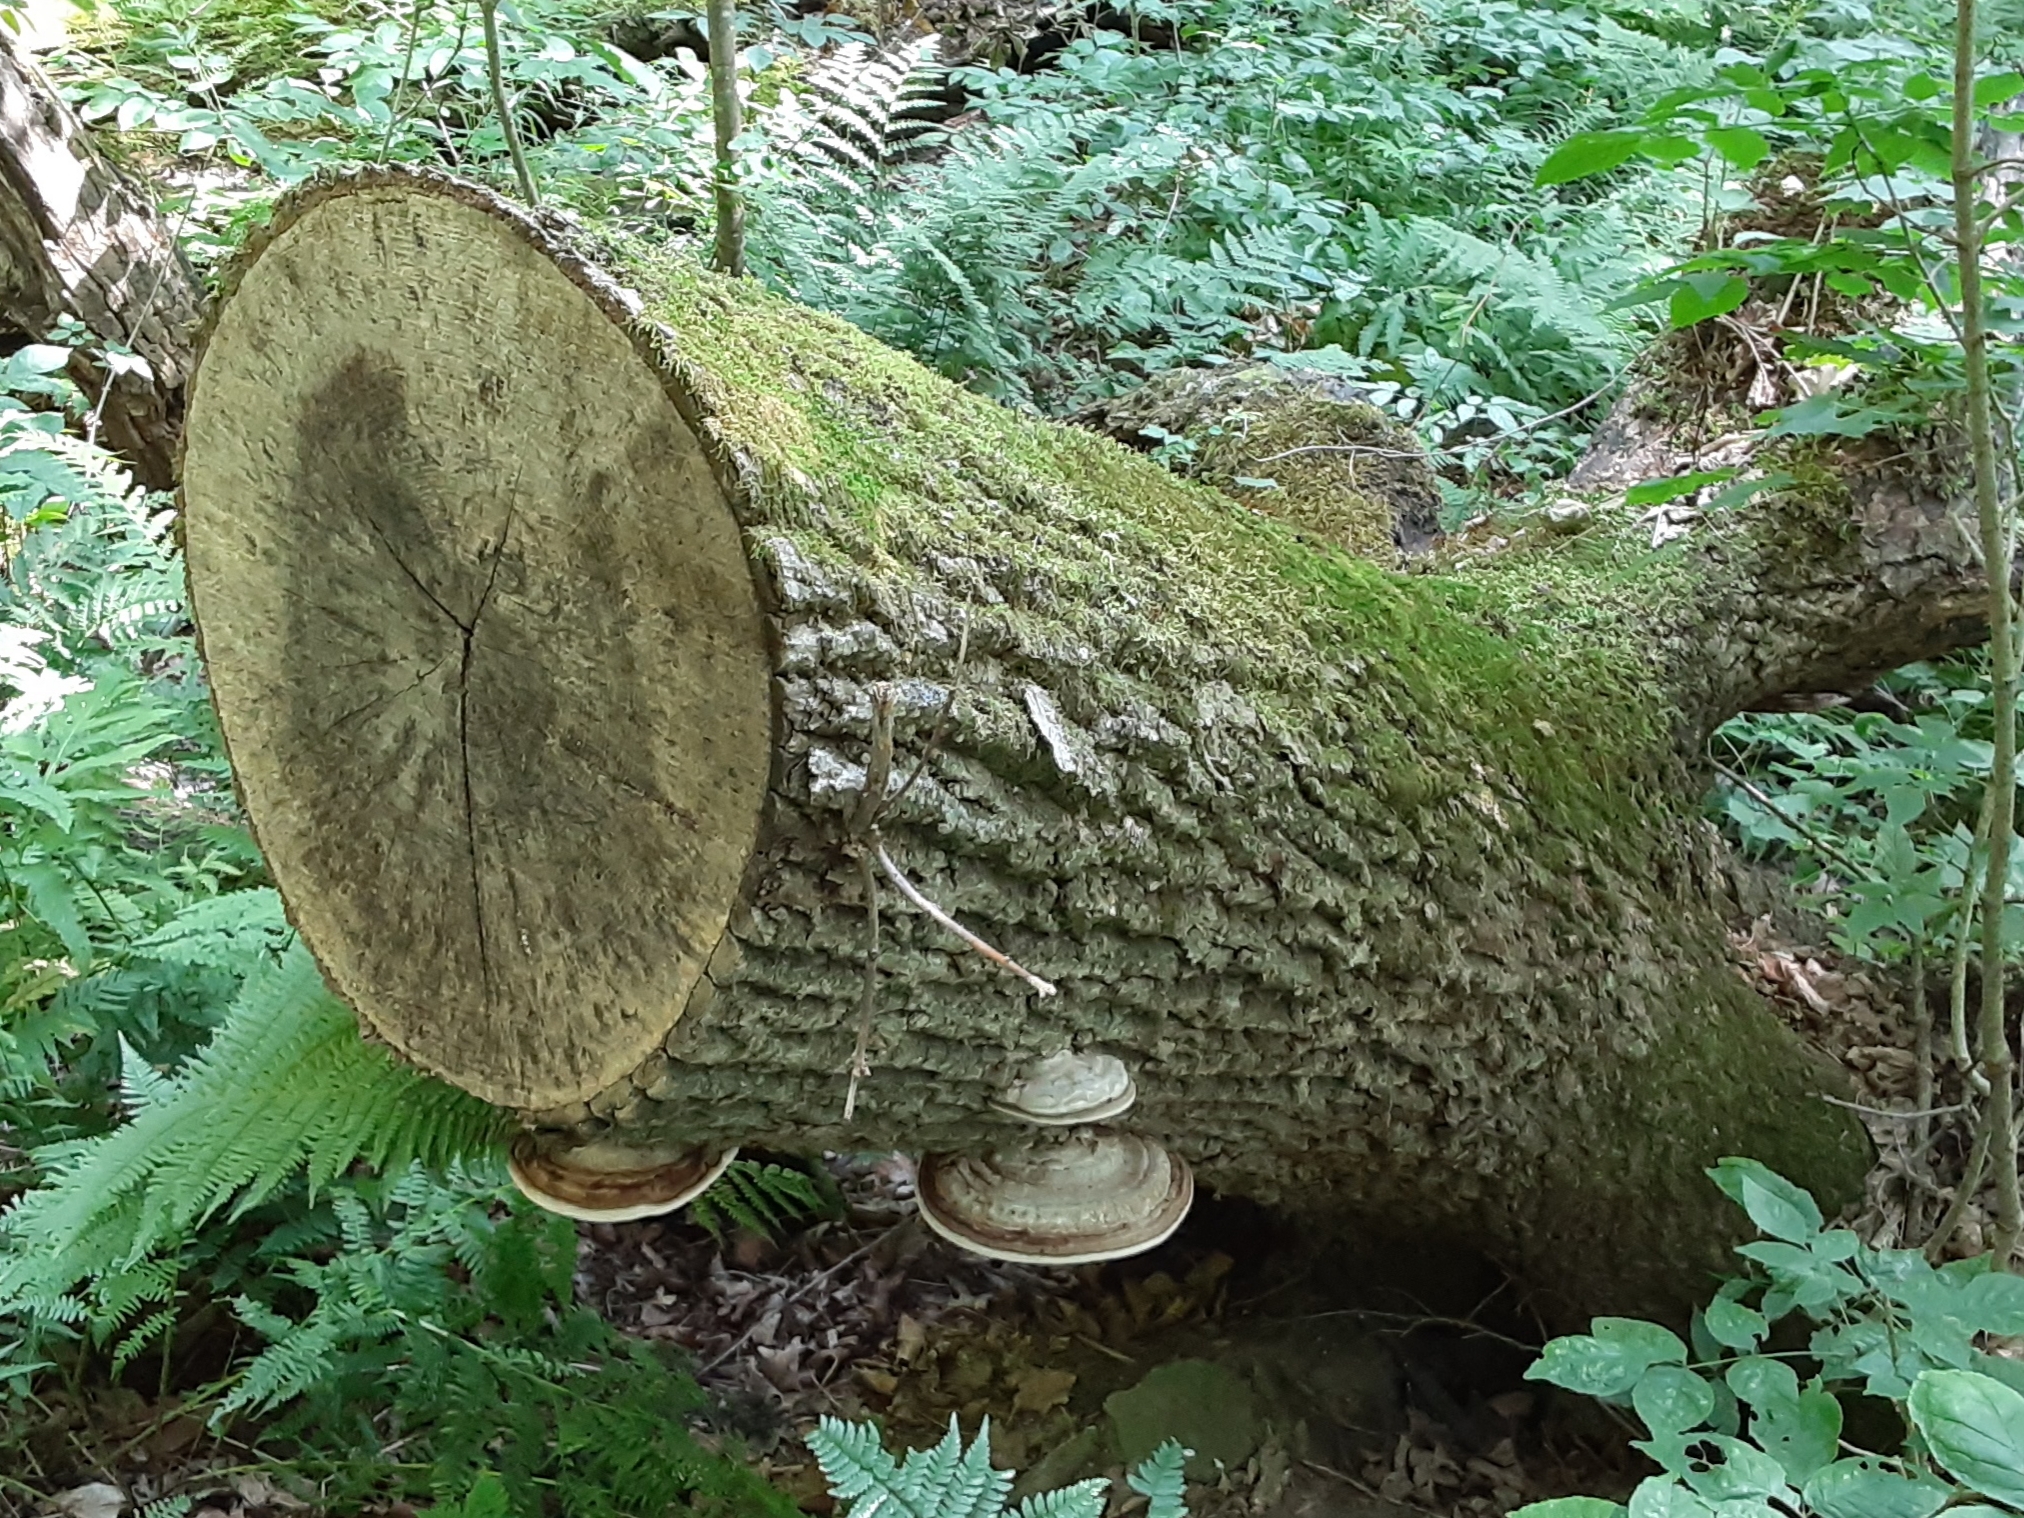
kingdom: Fungi
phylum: Basidiomycota
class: Agaricomycetes
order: Polyporales
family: Polyporaceae
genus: Ganoderma
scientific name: Ganoderma applanatum
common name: Artist's bracket
